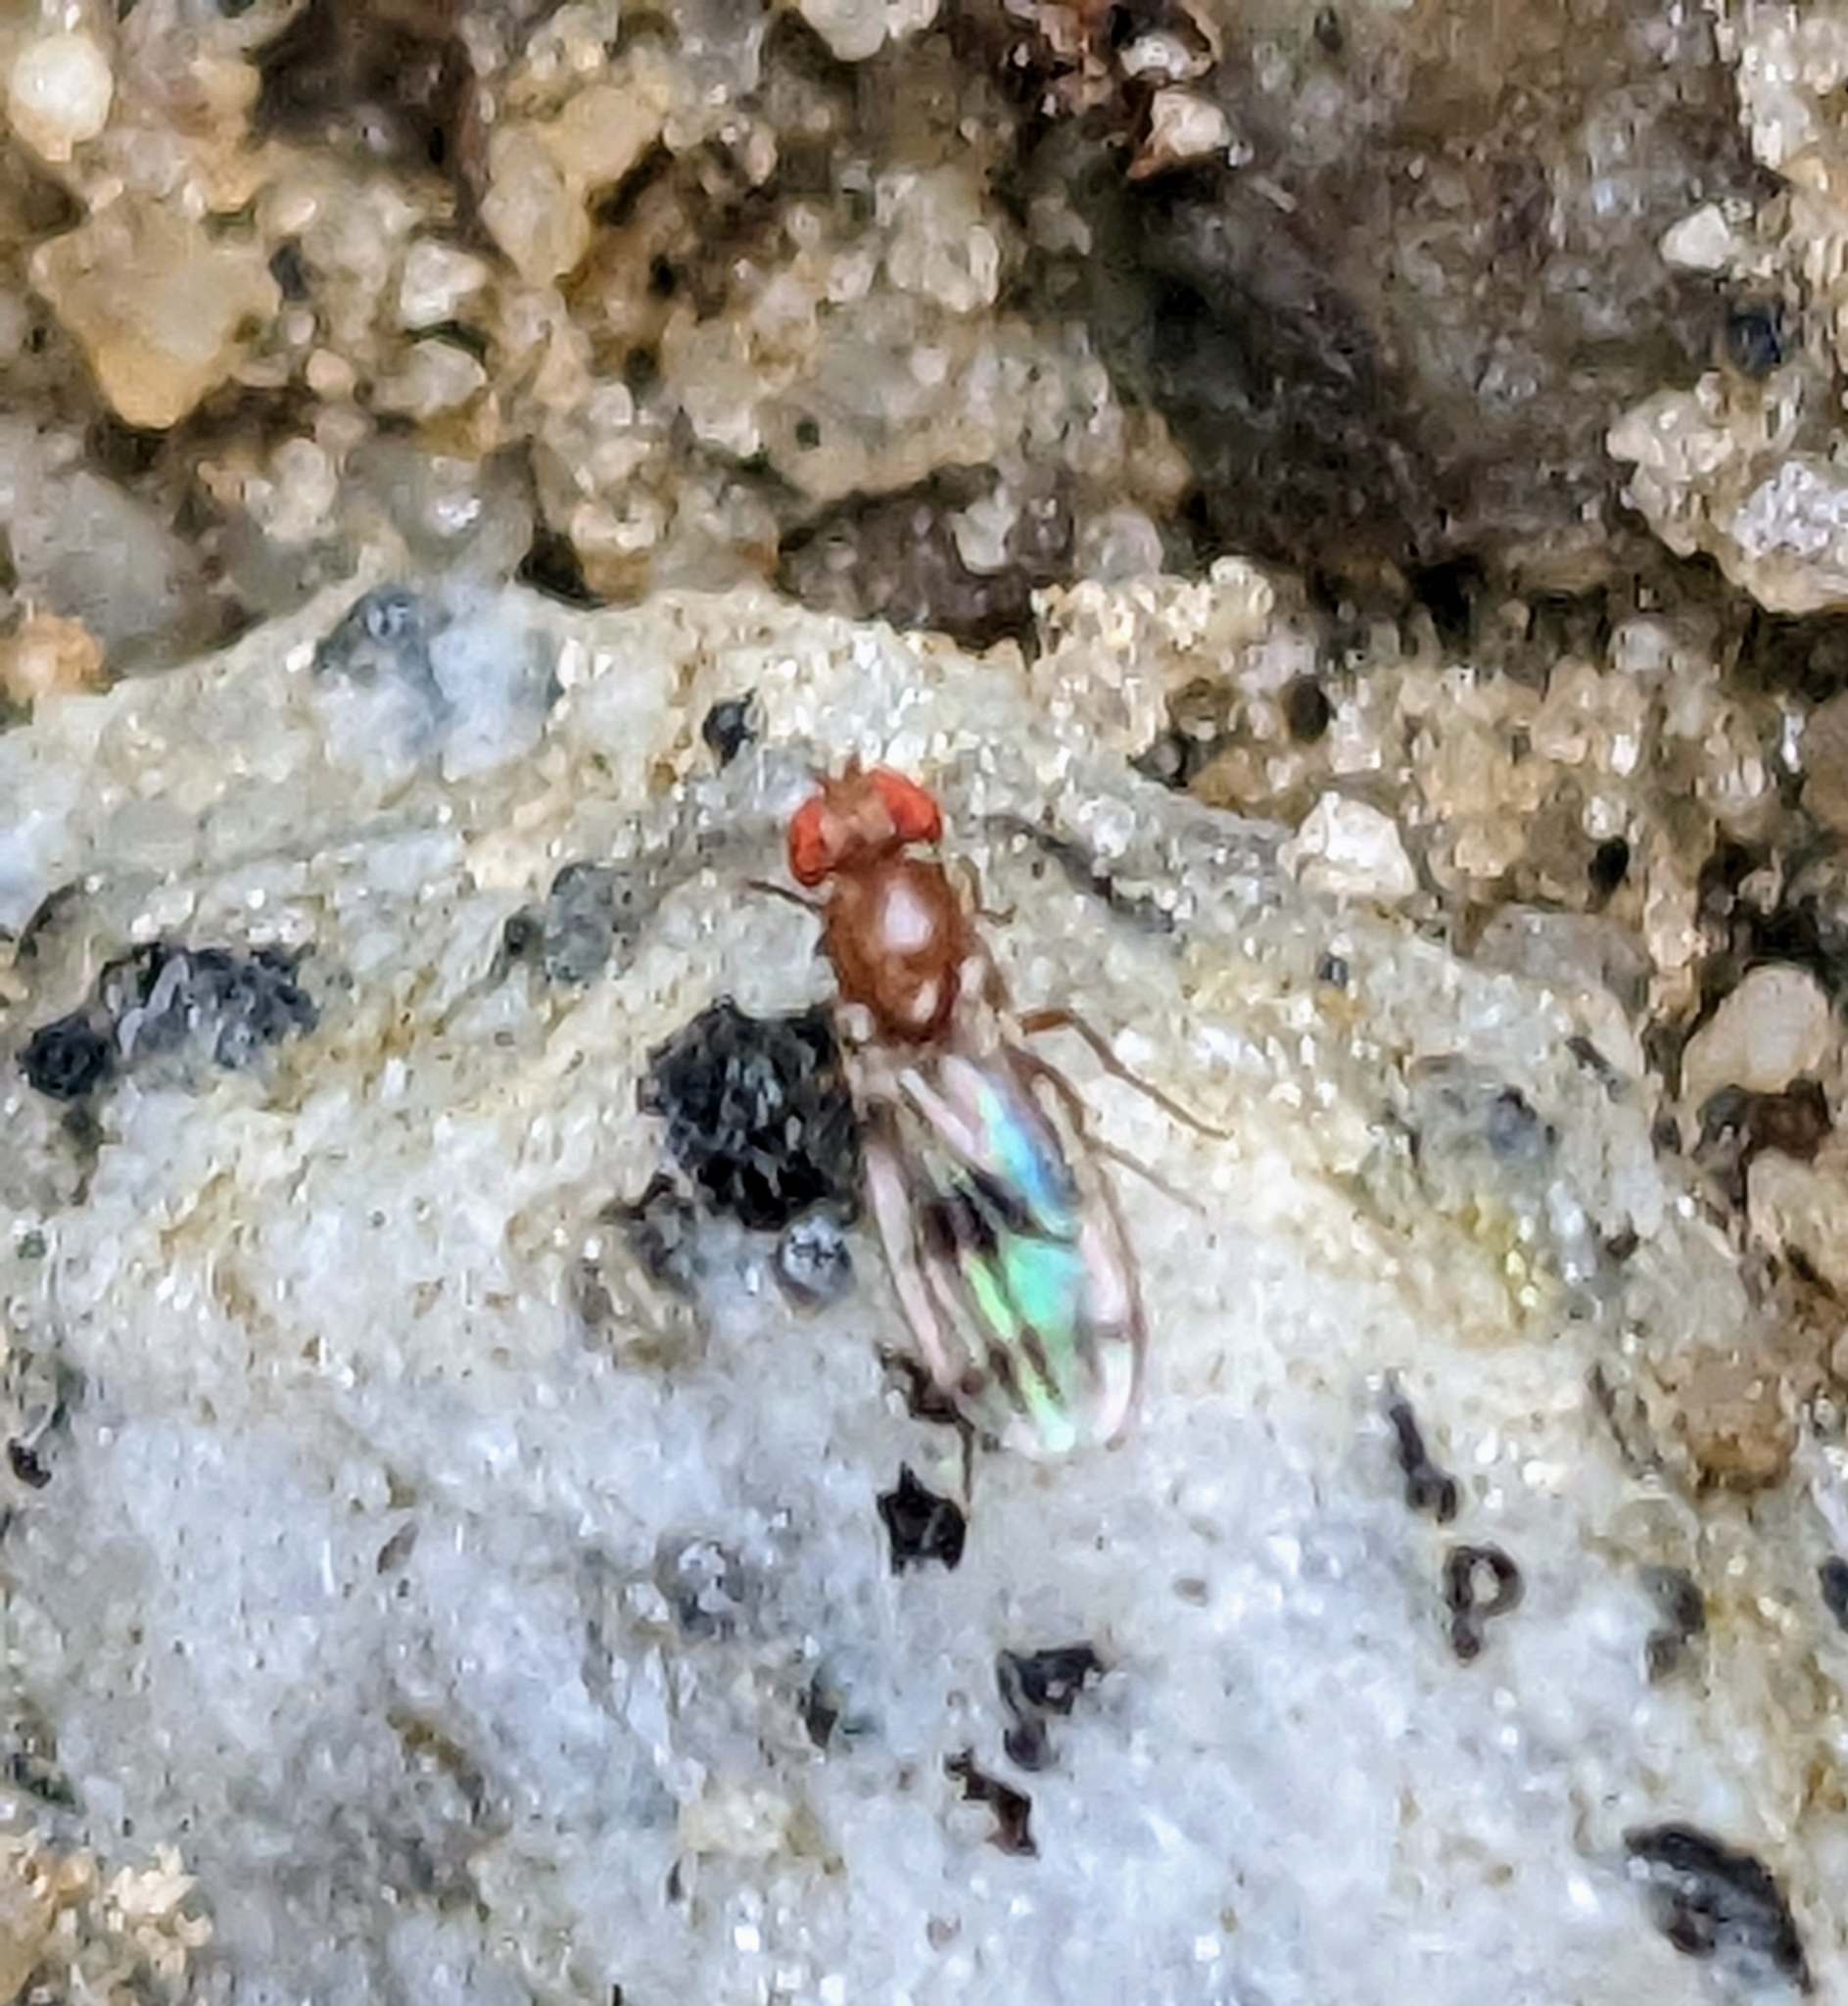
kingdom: Animalia
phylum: Arthropoda
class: Insecta
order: Diptera
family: Drosophilidae
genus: Chymomyza
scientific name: Chymomyza amoena
